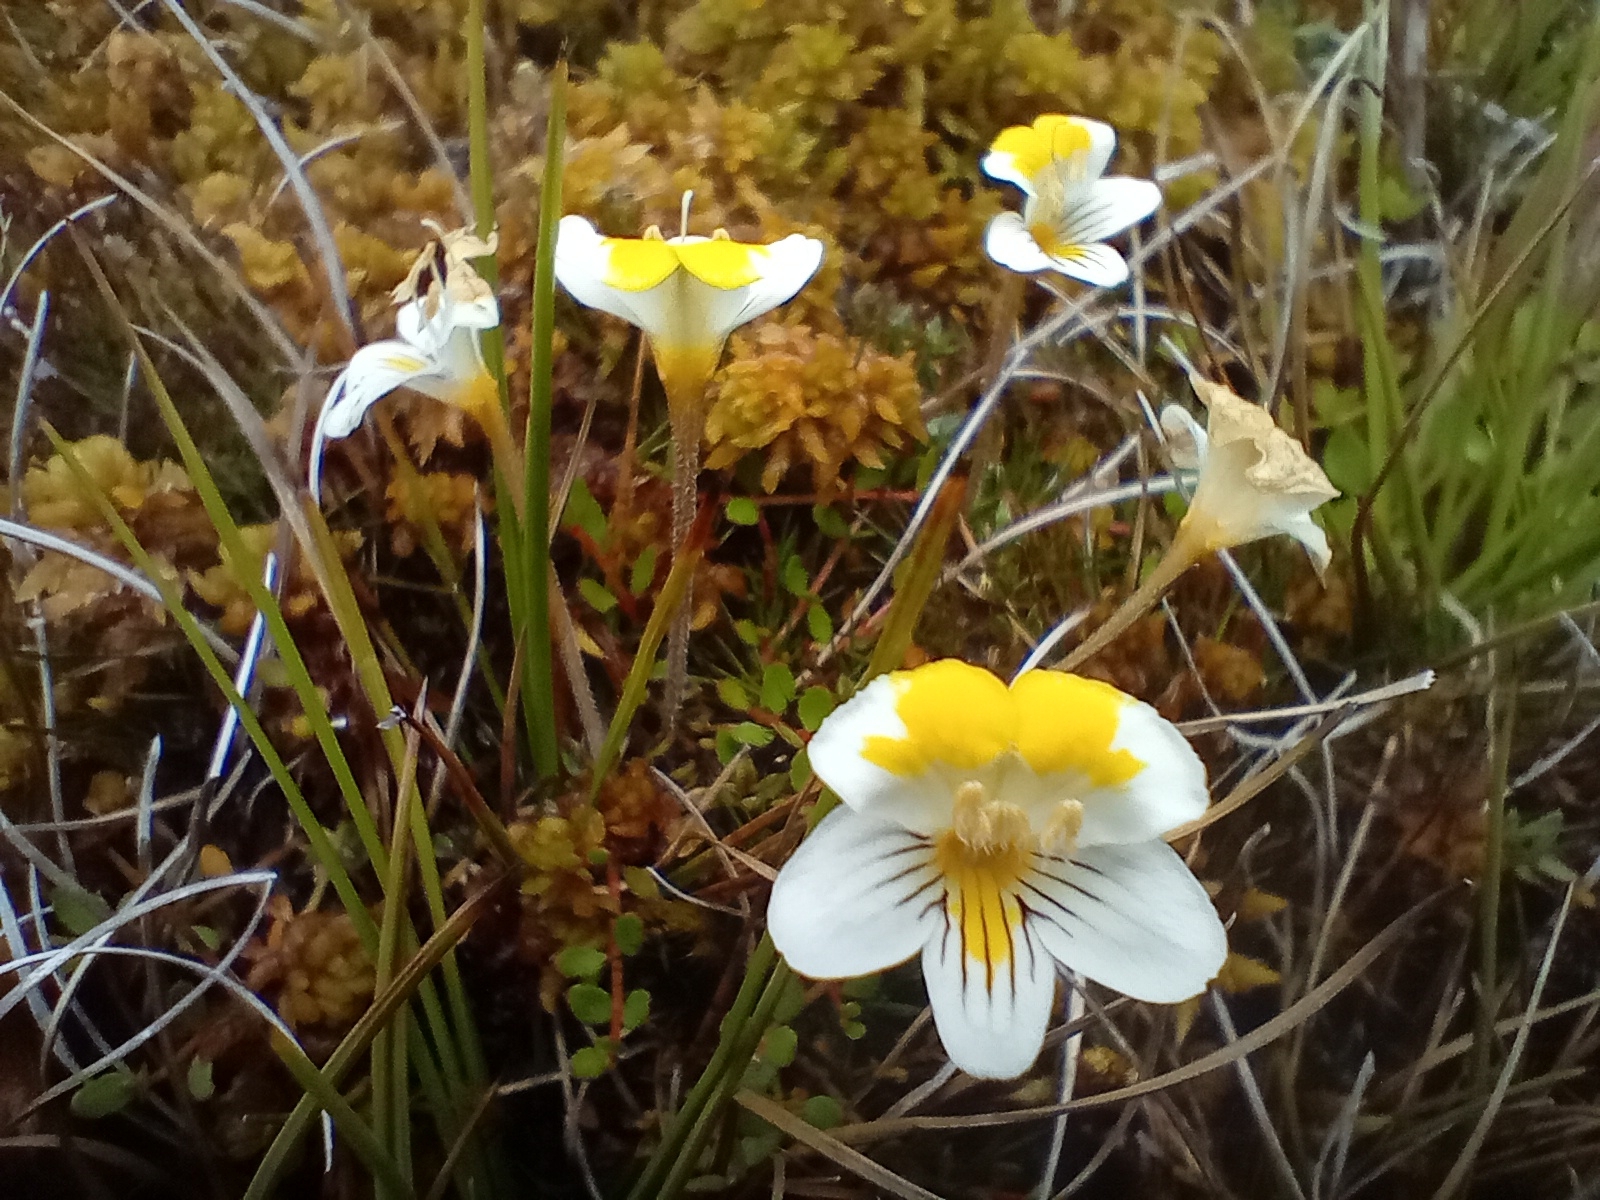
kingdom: Plantae
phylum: Tracheophyta
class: Magnoliopsida
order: Lamiales
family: Orobanchaceae
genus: Euphrasia
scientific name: Euphrasia disperma
